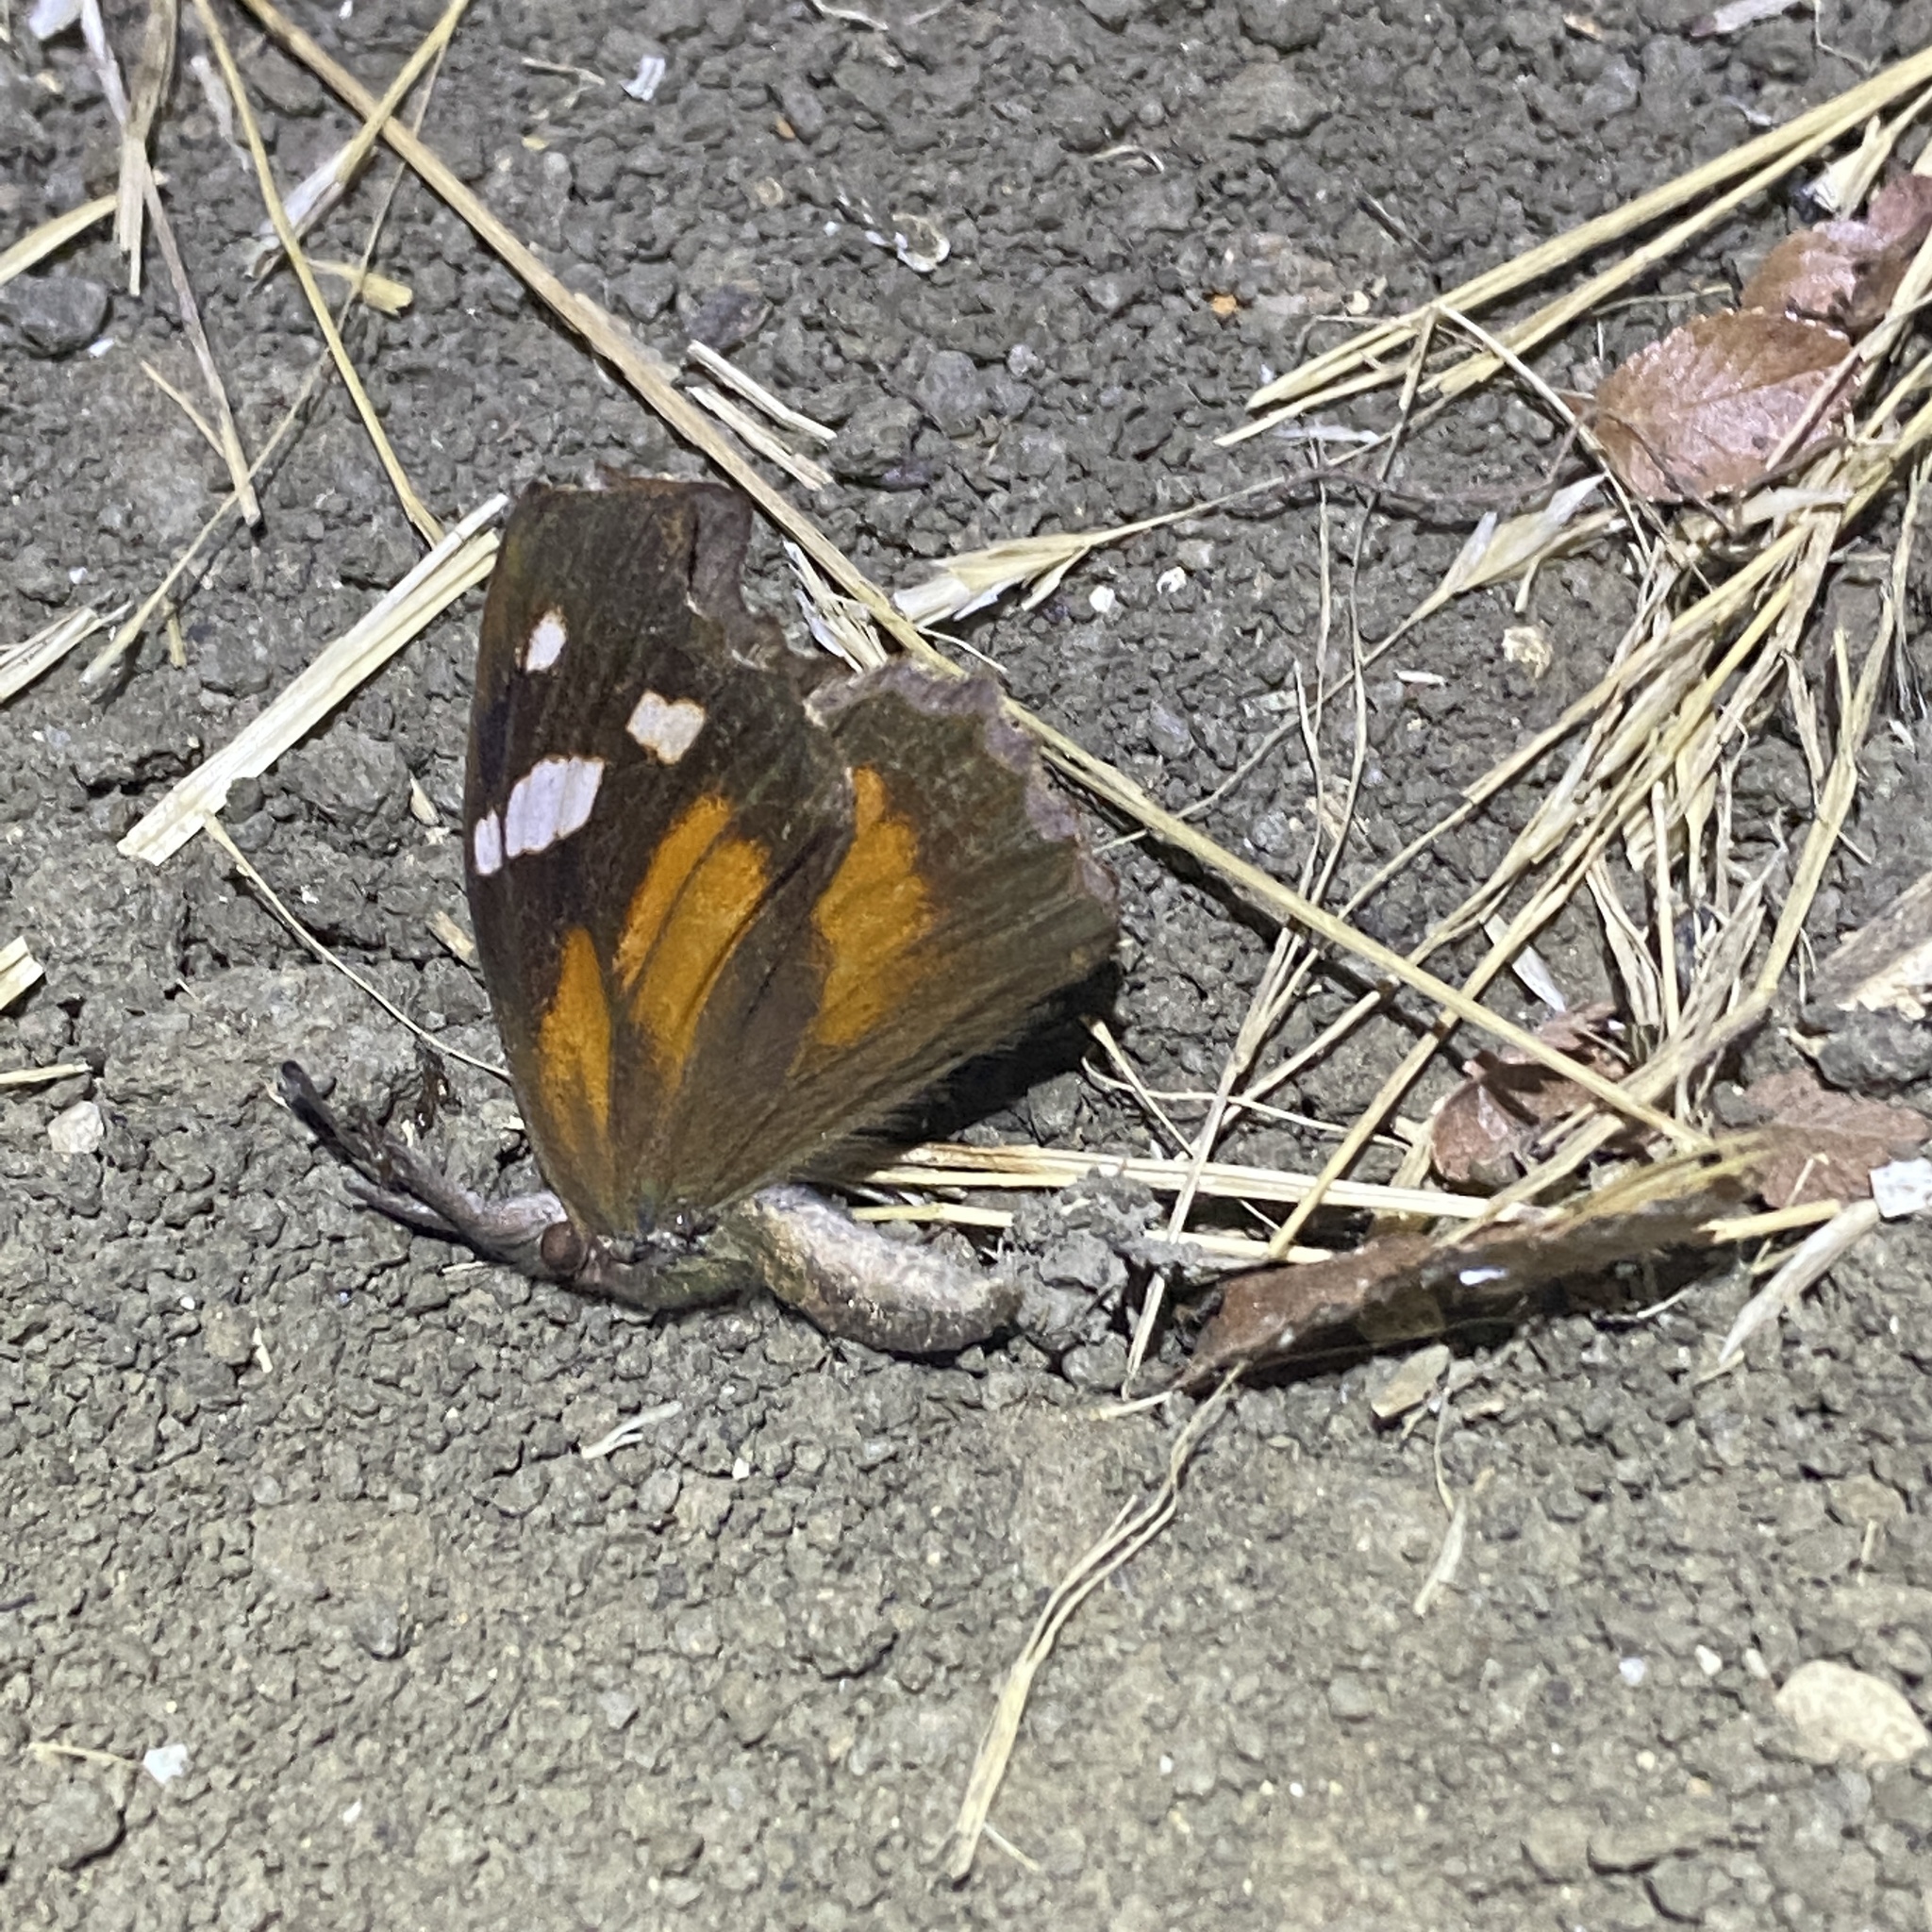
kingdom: Animalia
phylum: Arthropoda
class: Insecta
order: Lepidoptera
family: Nymphalidae
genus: Libytheana
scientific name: Libytheana carinenta
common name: American snout
